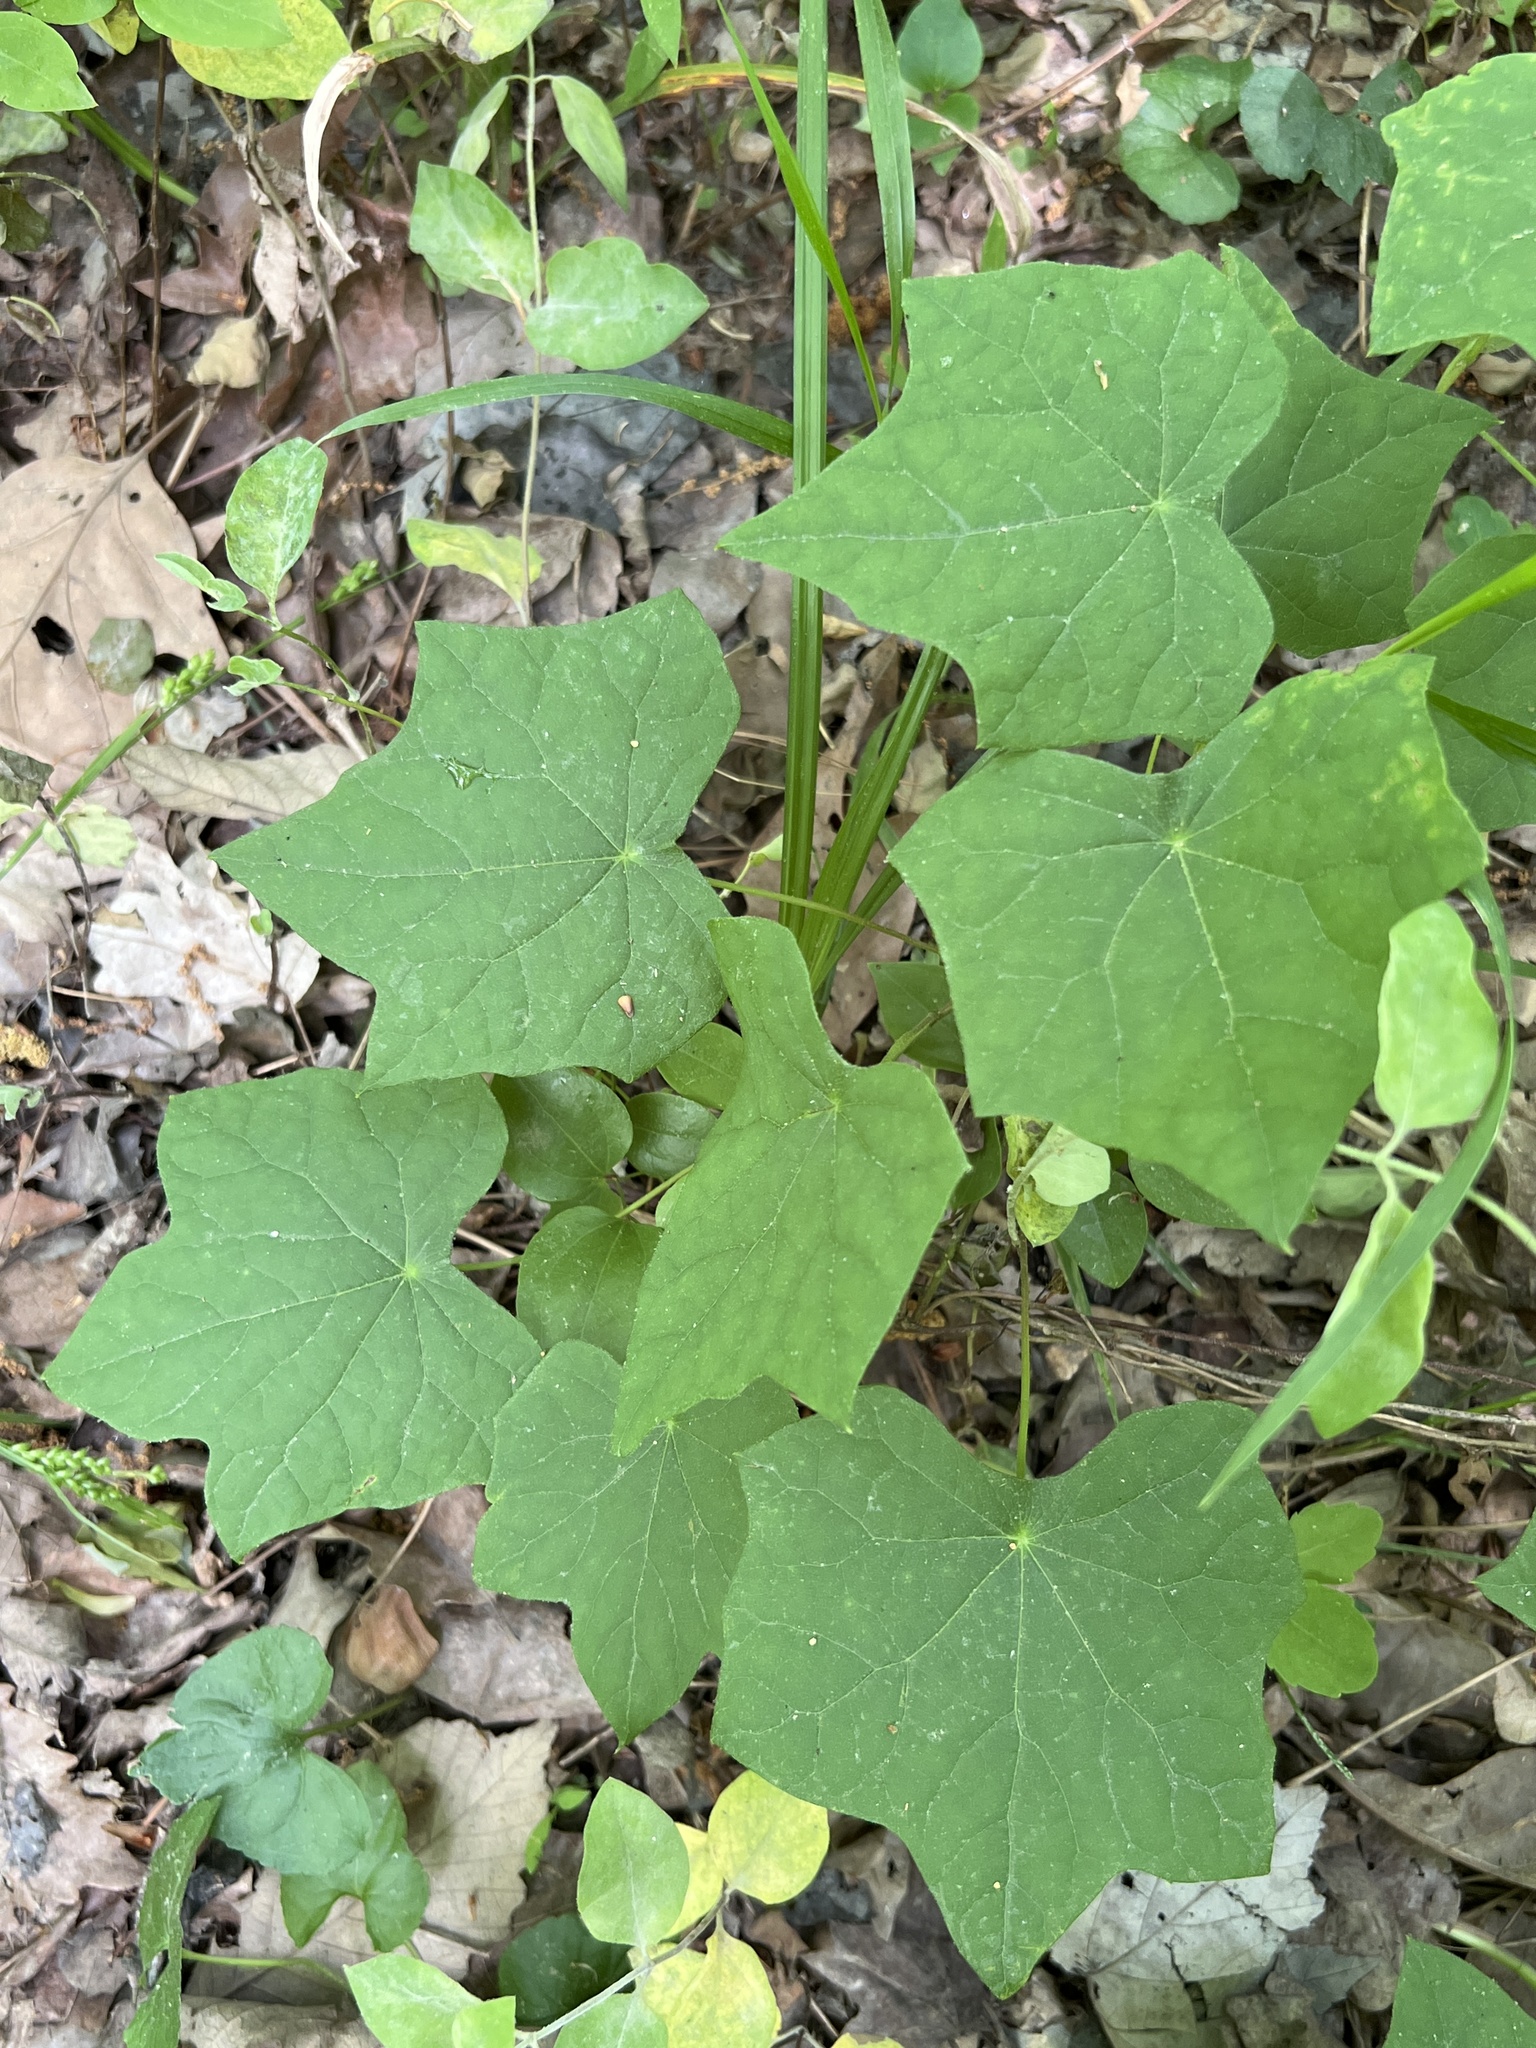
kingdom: Plantae
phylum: Tracheophyta
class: Magnoliopsida
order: Ranunculales
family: Menispermaceae
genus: Menispermum
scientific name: Menispermum canadense
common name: Moonseed
